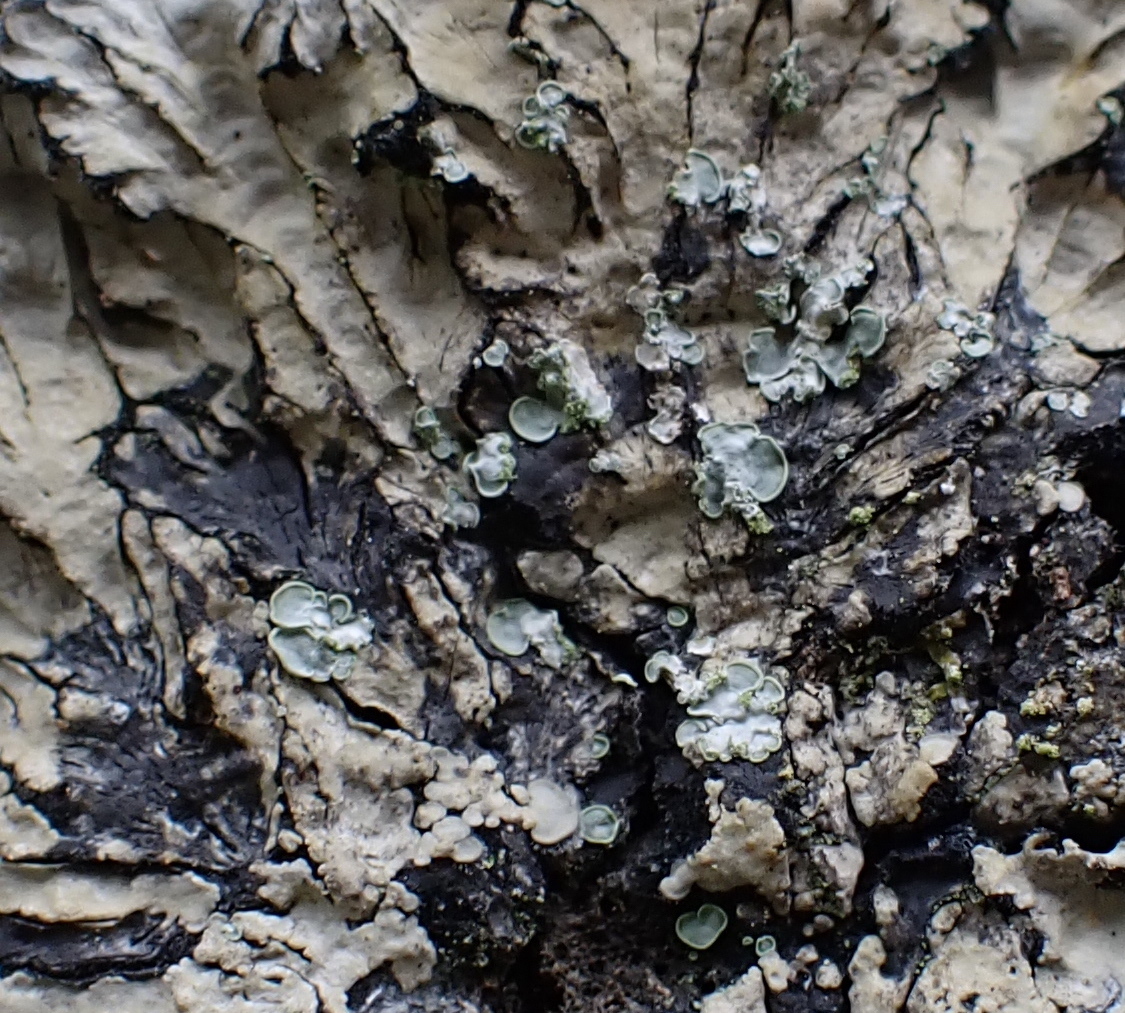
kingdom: Fungi
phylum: Ascomycota
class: Eurotiomycetes
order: Verrucariales
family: Verrucariaceae
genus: Normandina
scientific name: Normandina pulchella
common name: Elf ears lichen
